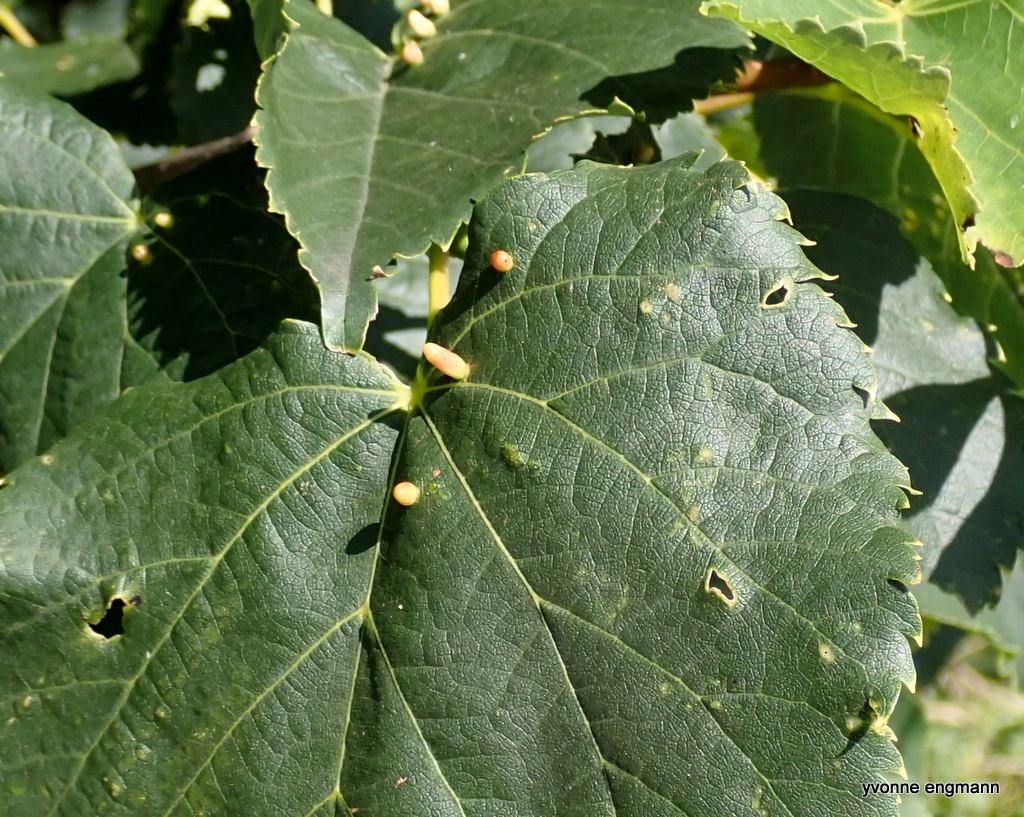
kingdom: Animalia
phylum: Arthropoda
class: Arachnida
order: Trombidiformes
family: Eriophyidae
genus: Eriophyes
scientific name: Eriophyes tiliae
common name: Red nail gall mite
